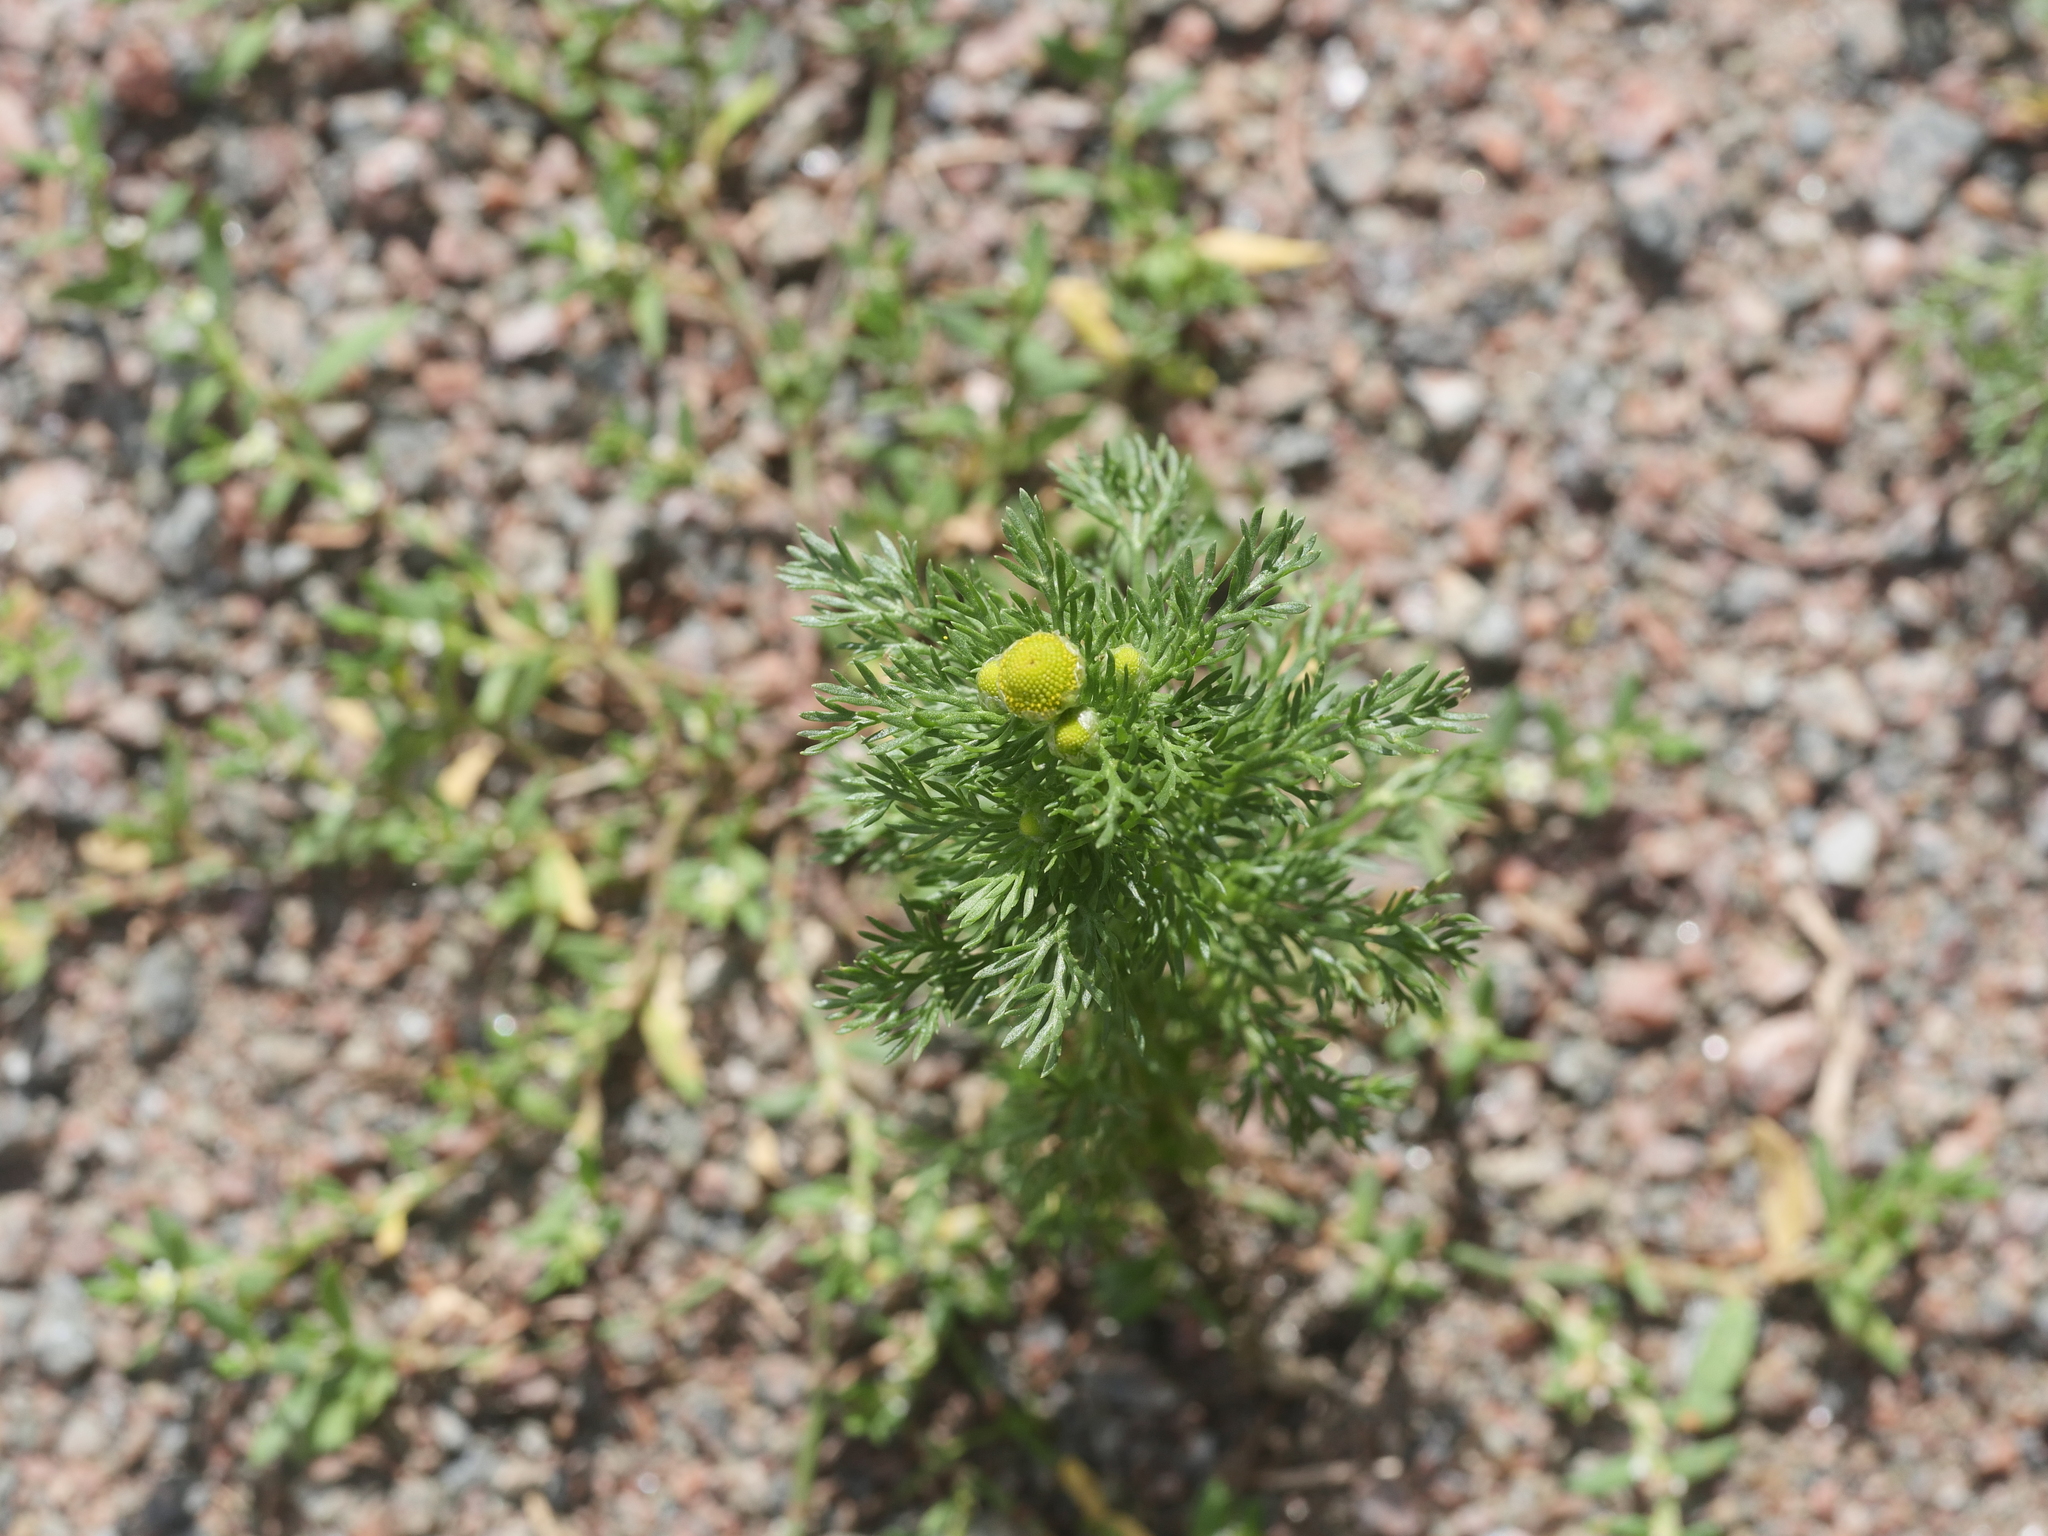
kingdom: Plantae
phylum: Tracheophyta
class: Magnoliopsida
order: Asterales
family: Asteraceae
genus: Matricaria
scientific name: Matricaria discoidea
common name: Disc mayweed
